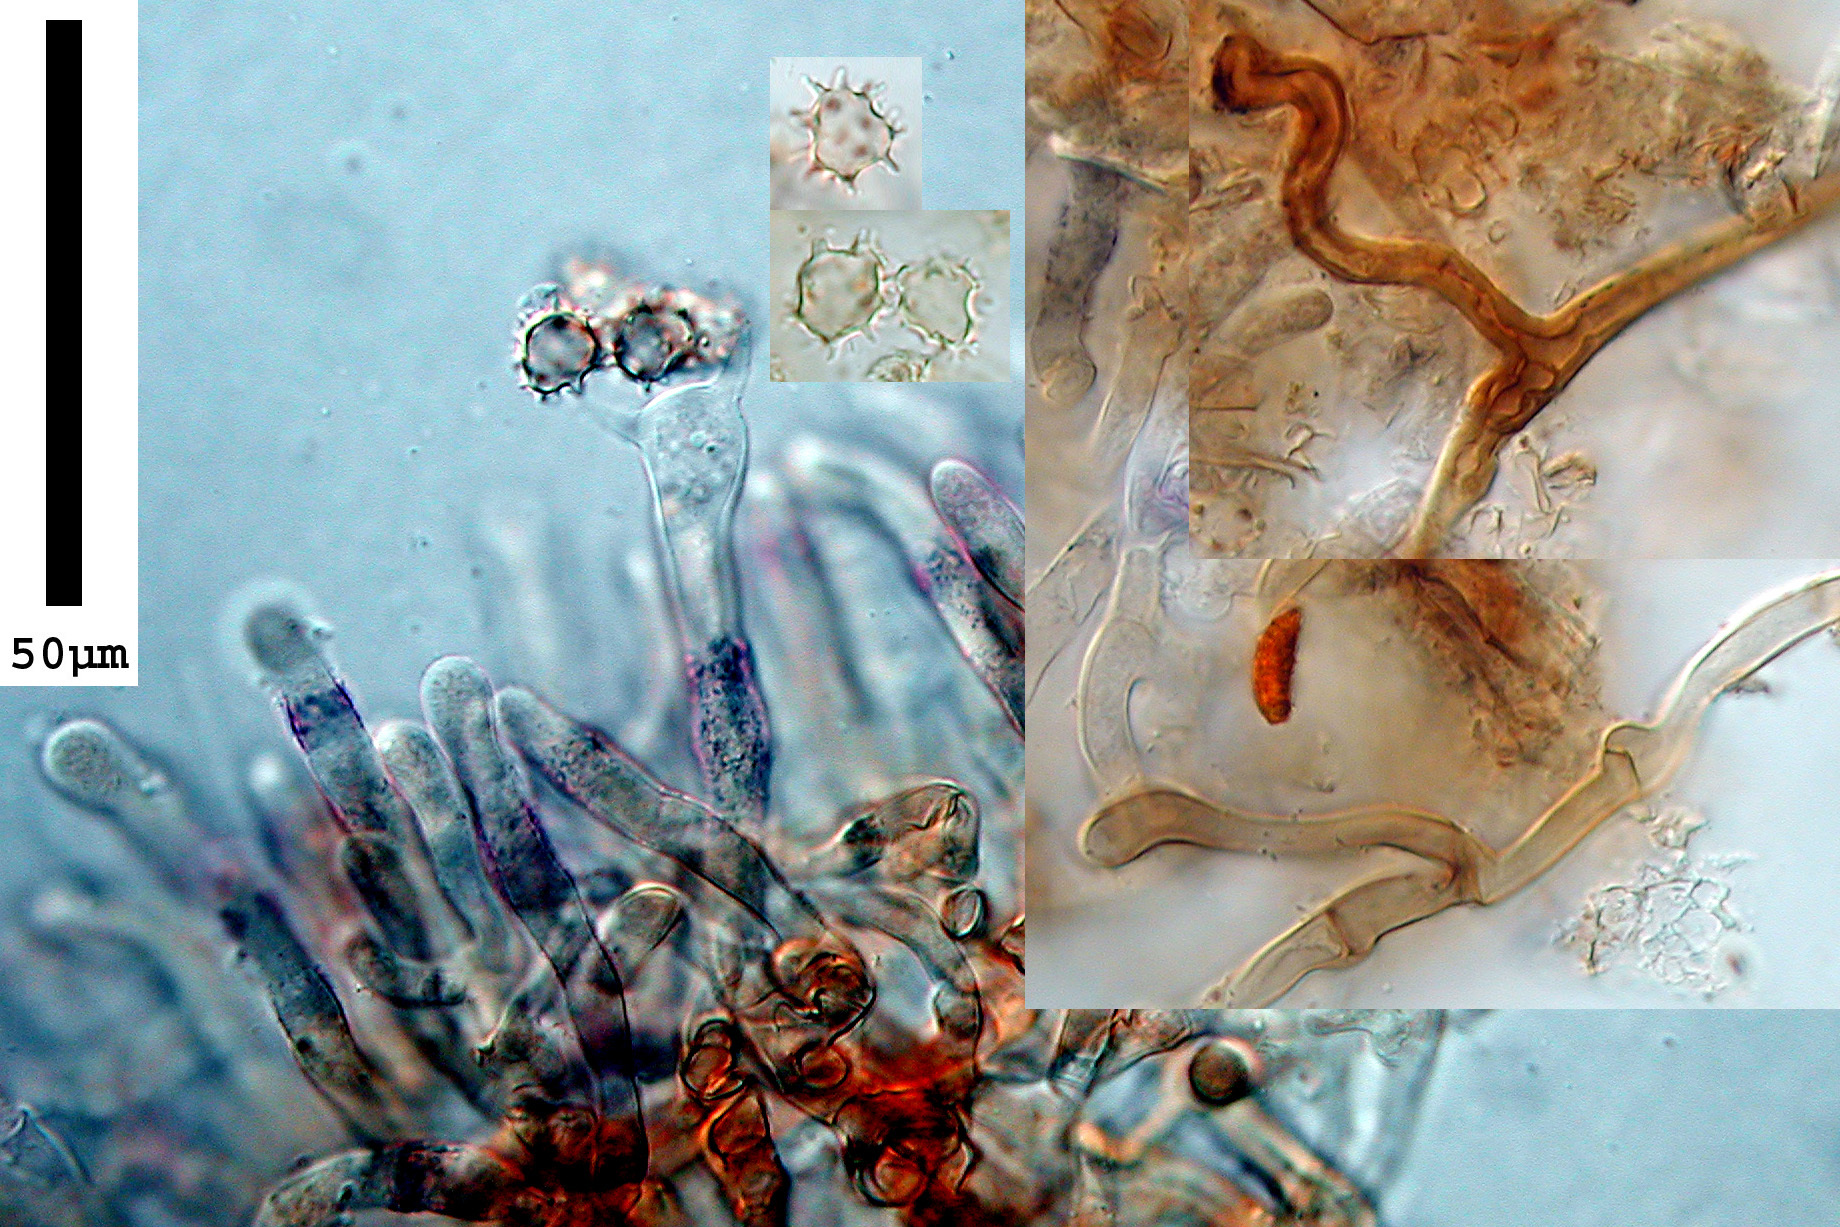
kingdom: Fungi
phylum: Basidiomycota
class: Agaricomycetes
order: Thelephorales
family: Thelephoraceae
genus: Tomentella
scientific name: Tomentella scobinella
